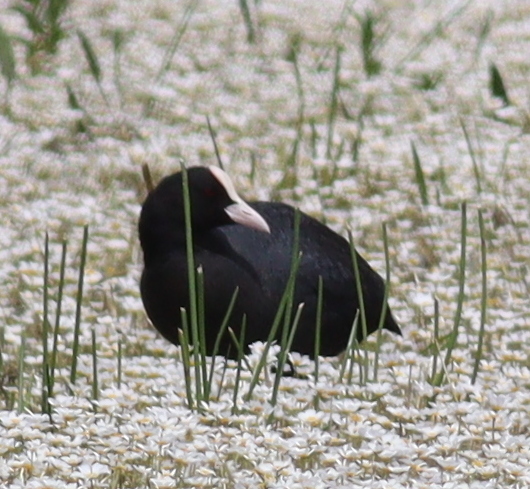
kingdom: Animalia
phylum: Chordata
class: Aves
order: Gruiformes
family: Rallidae
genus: Fulica
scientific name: Fulica atra
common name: Eurasian coot
